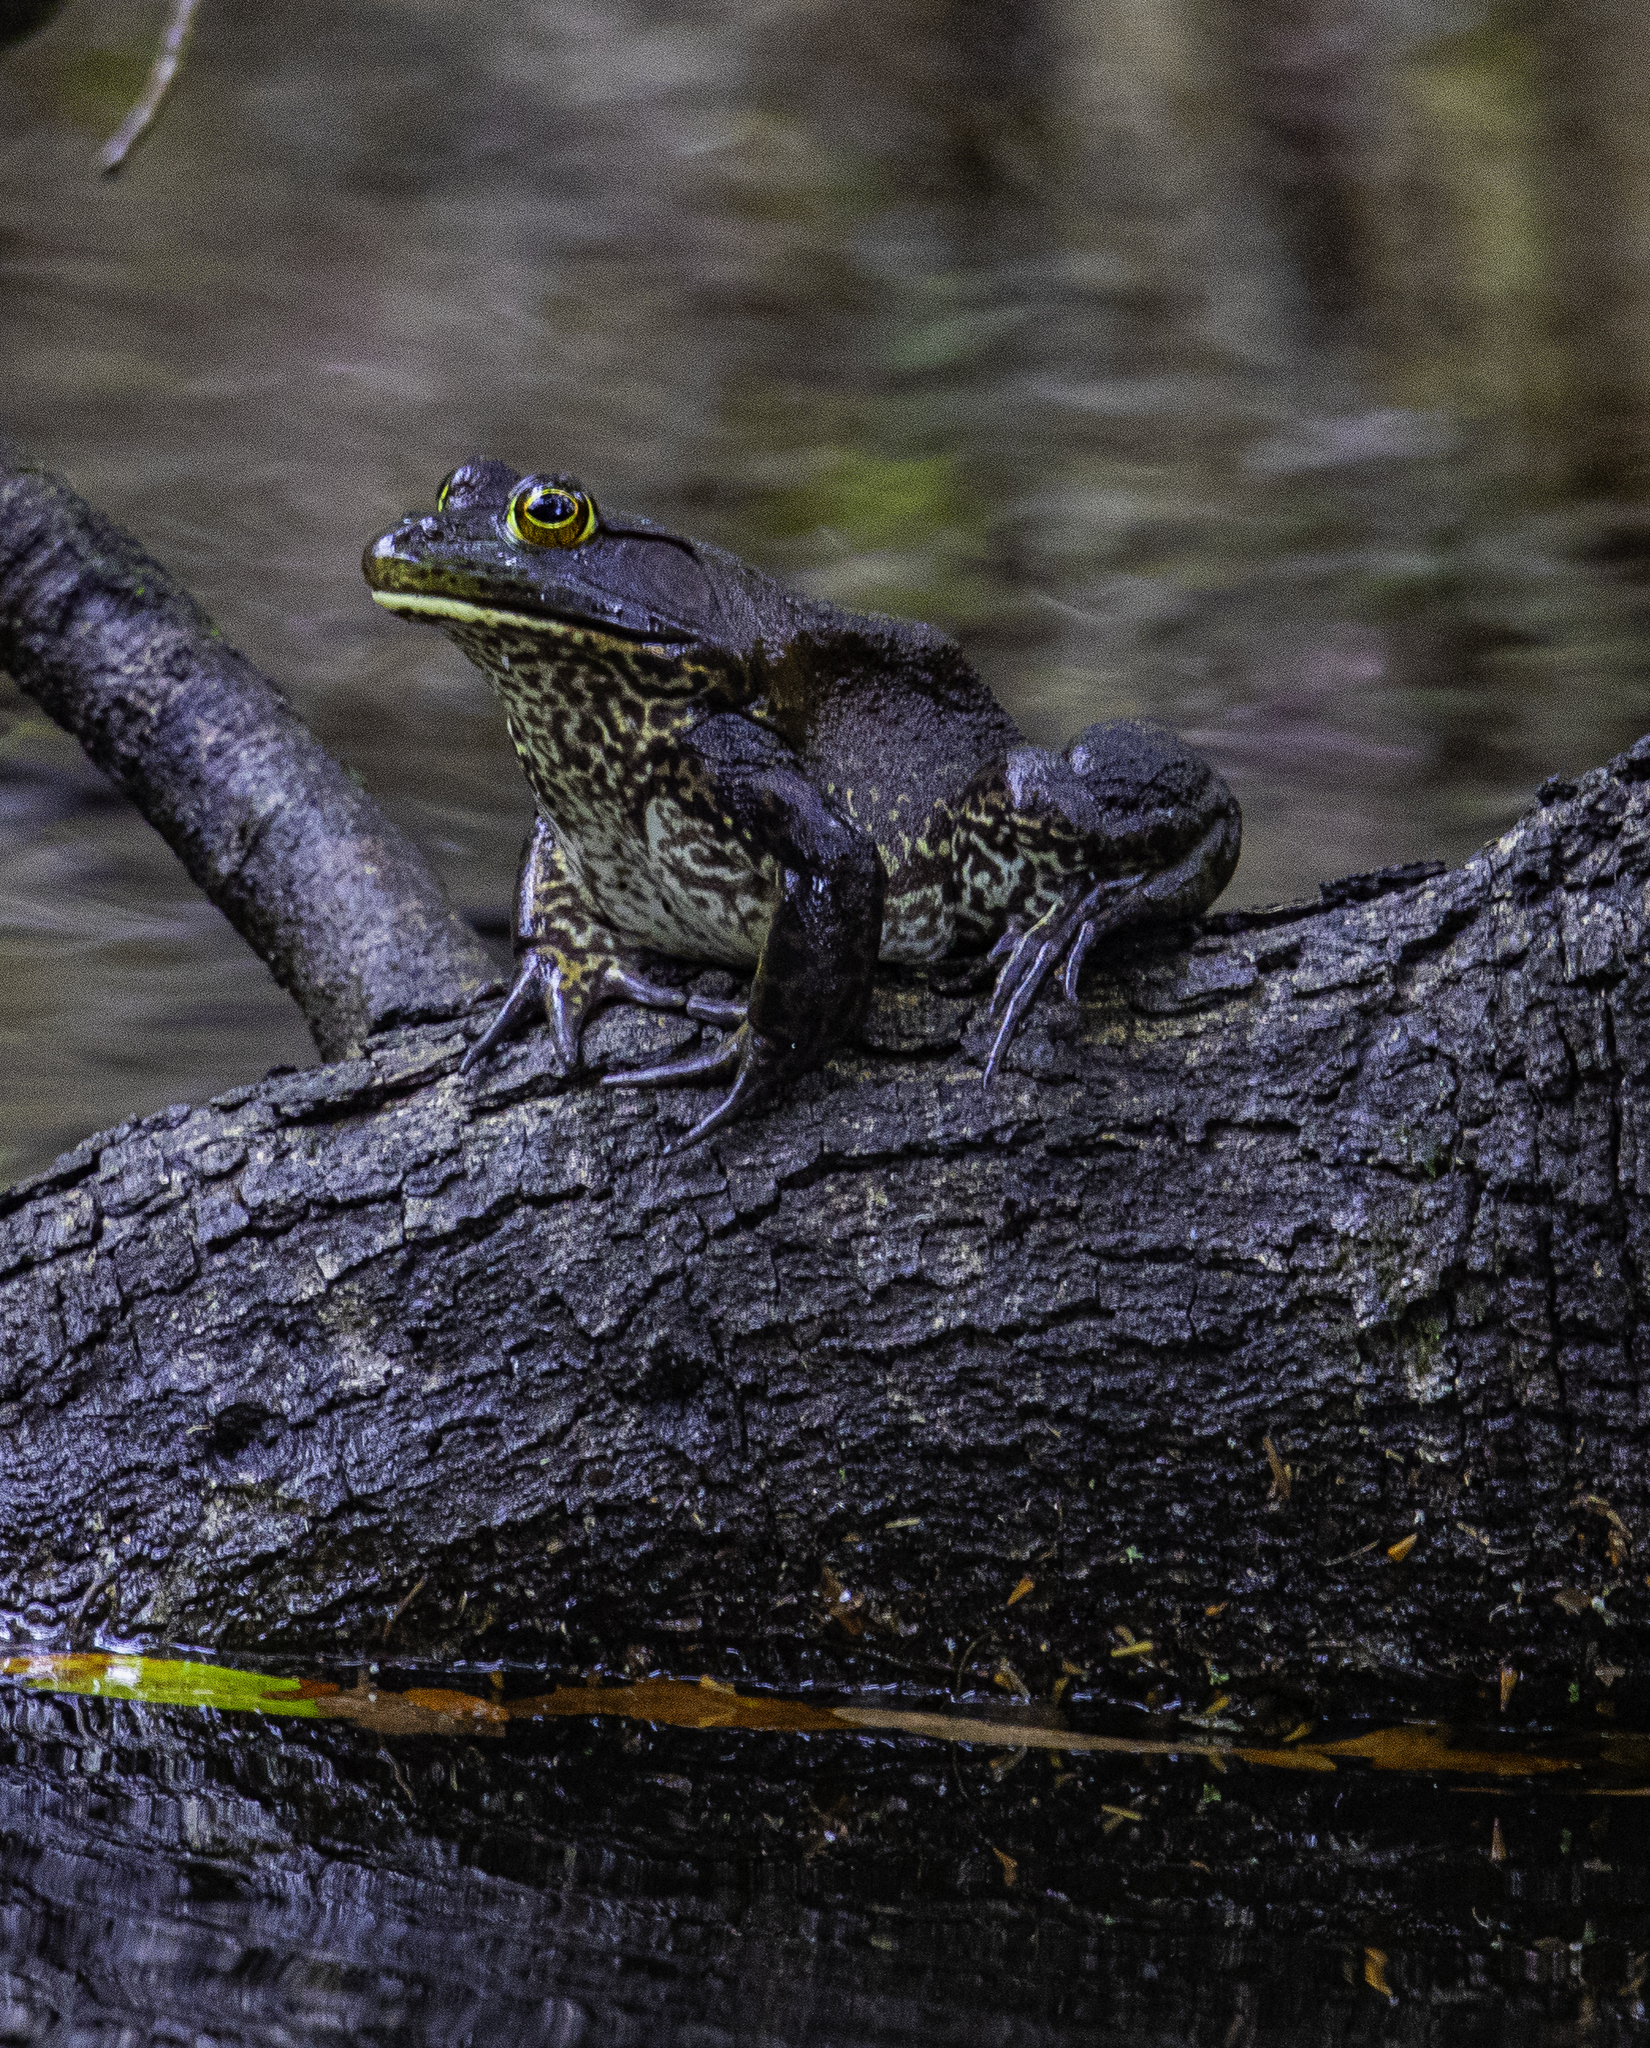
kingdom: Animalia
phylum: Chordata
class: Amphibia
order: Anura
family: Ranidae
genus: Lithobates
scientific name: Lithobates catesbeianus
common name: American bullfrog
